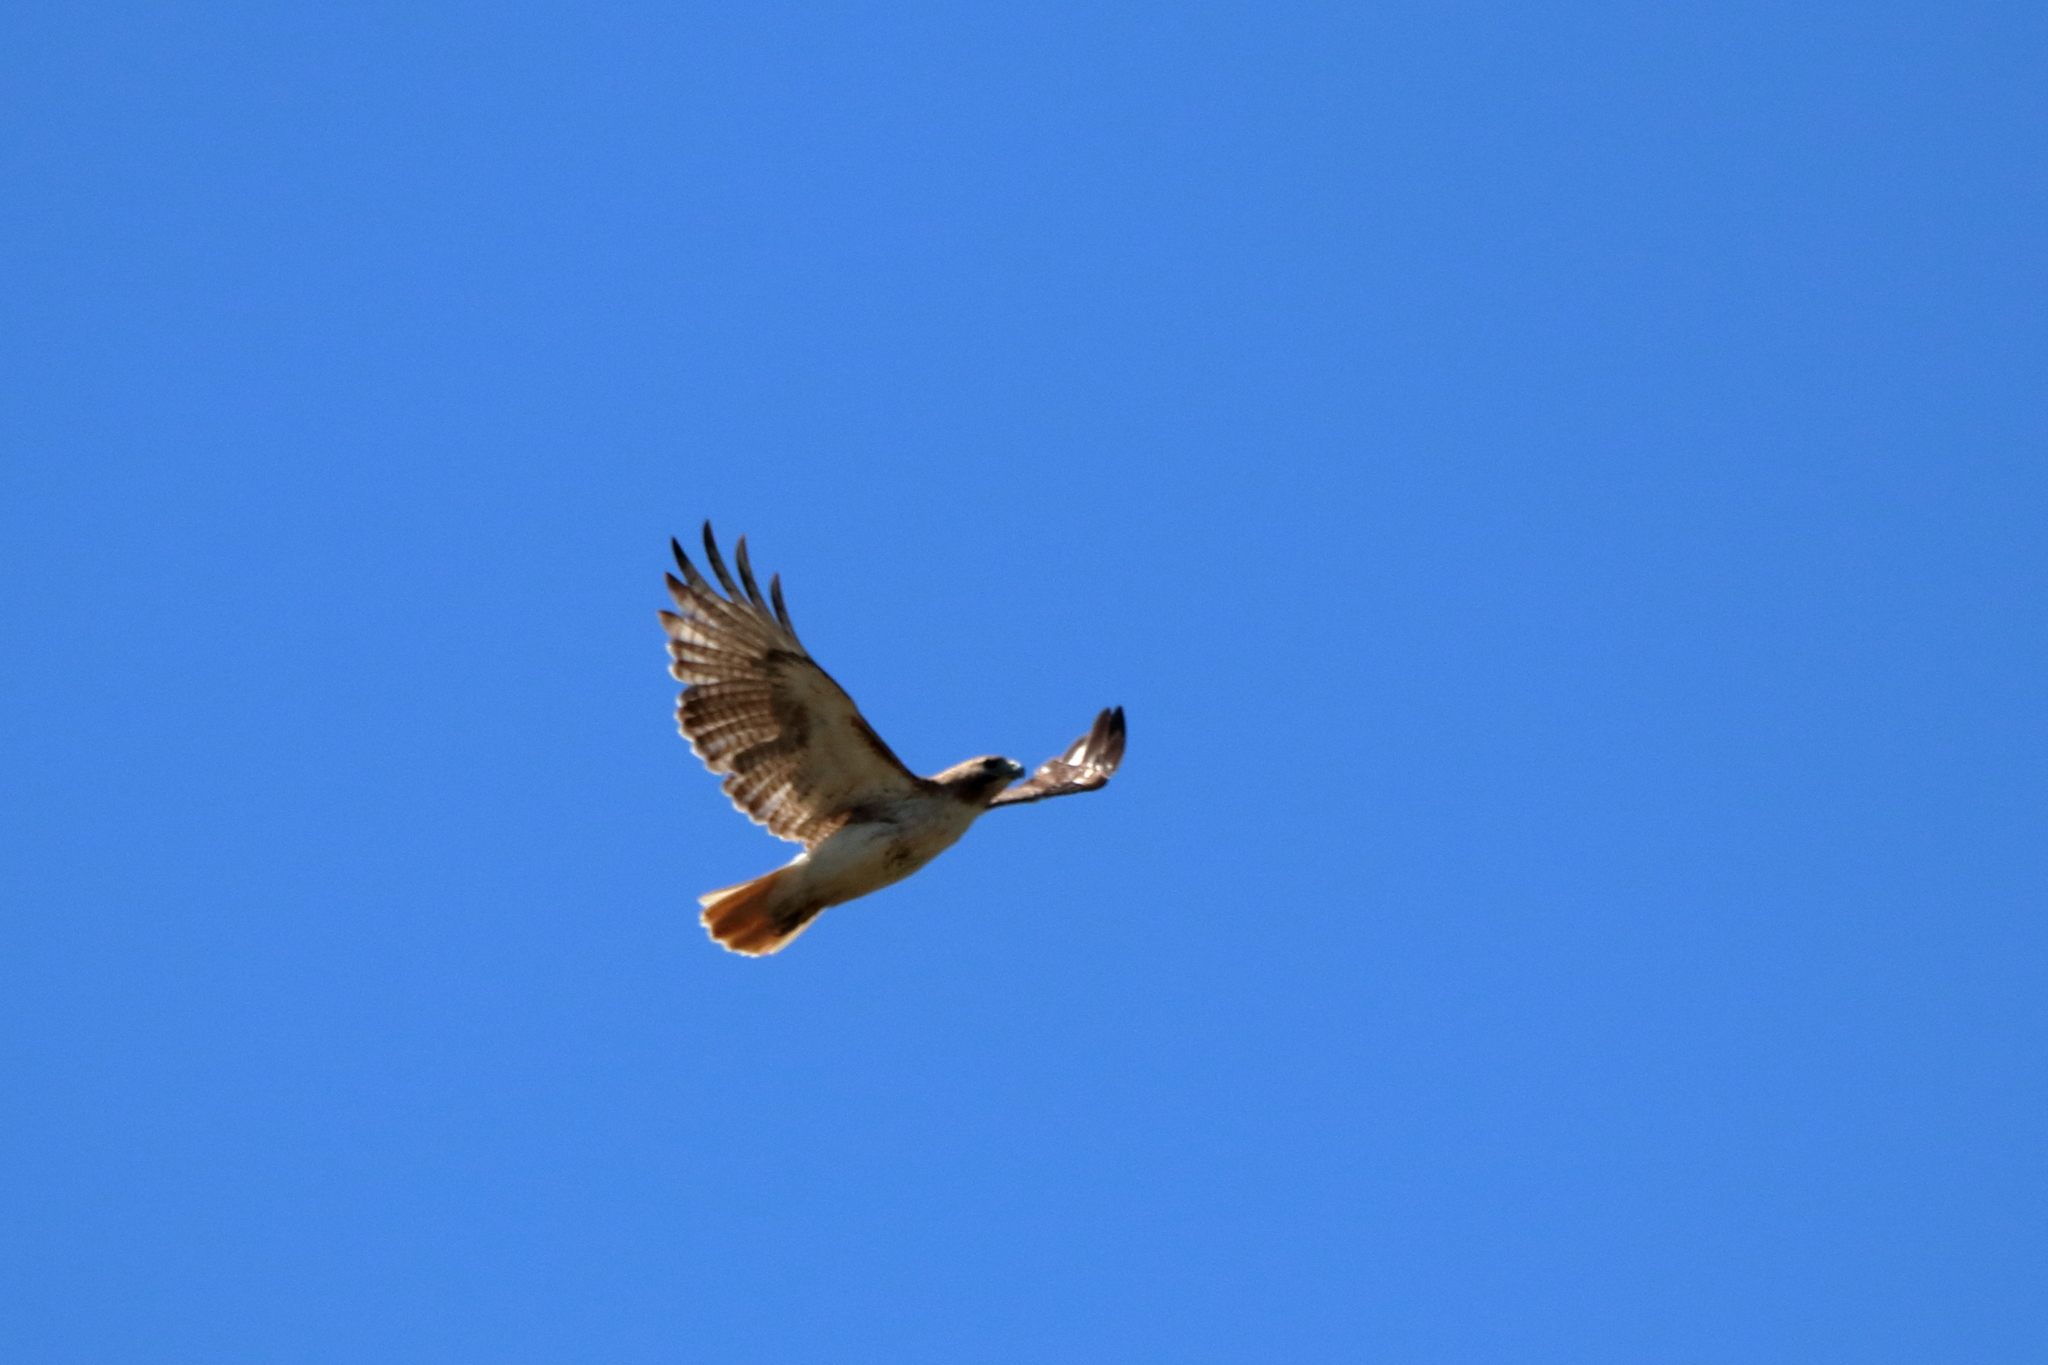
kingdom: Animalia
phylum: Chordata
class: Aves
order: Accipitriformes
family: Accipitridae
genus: Buteo
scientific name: Buteo jamaicensis
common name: Red-tailed hawk
